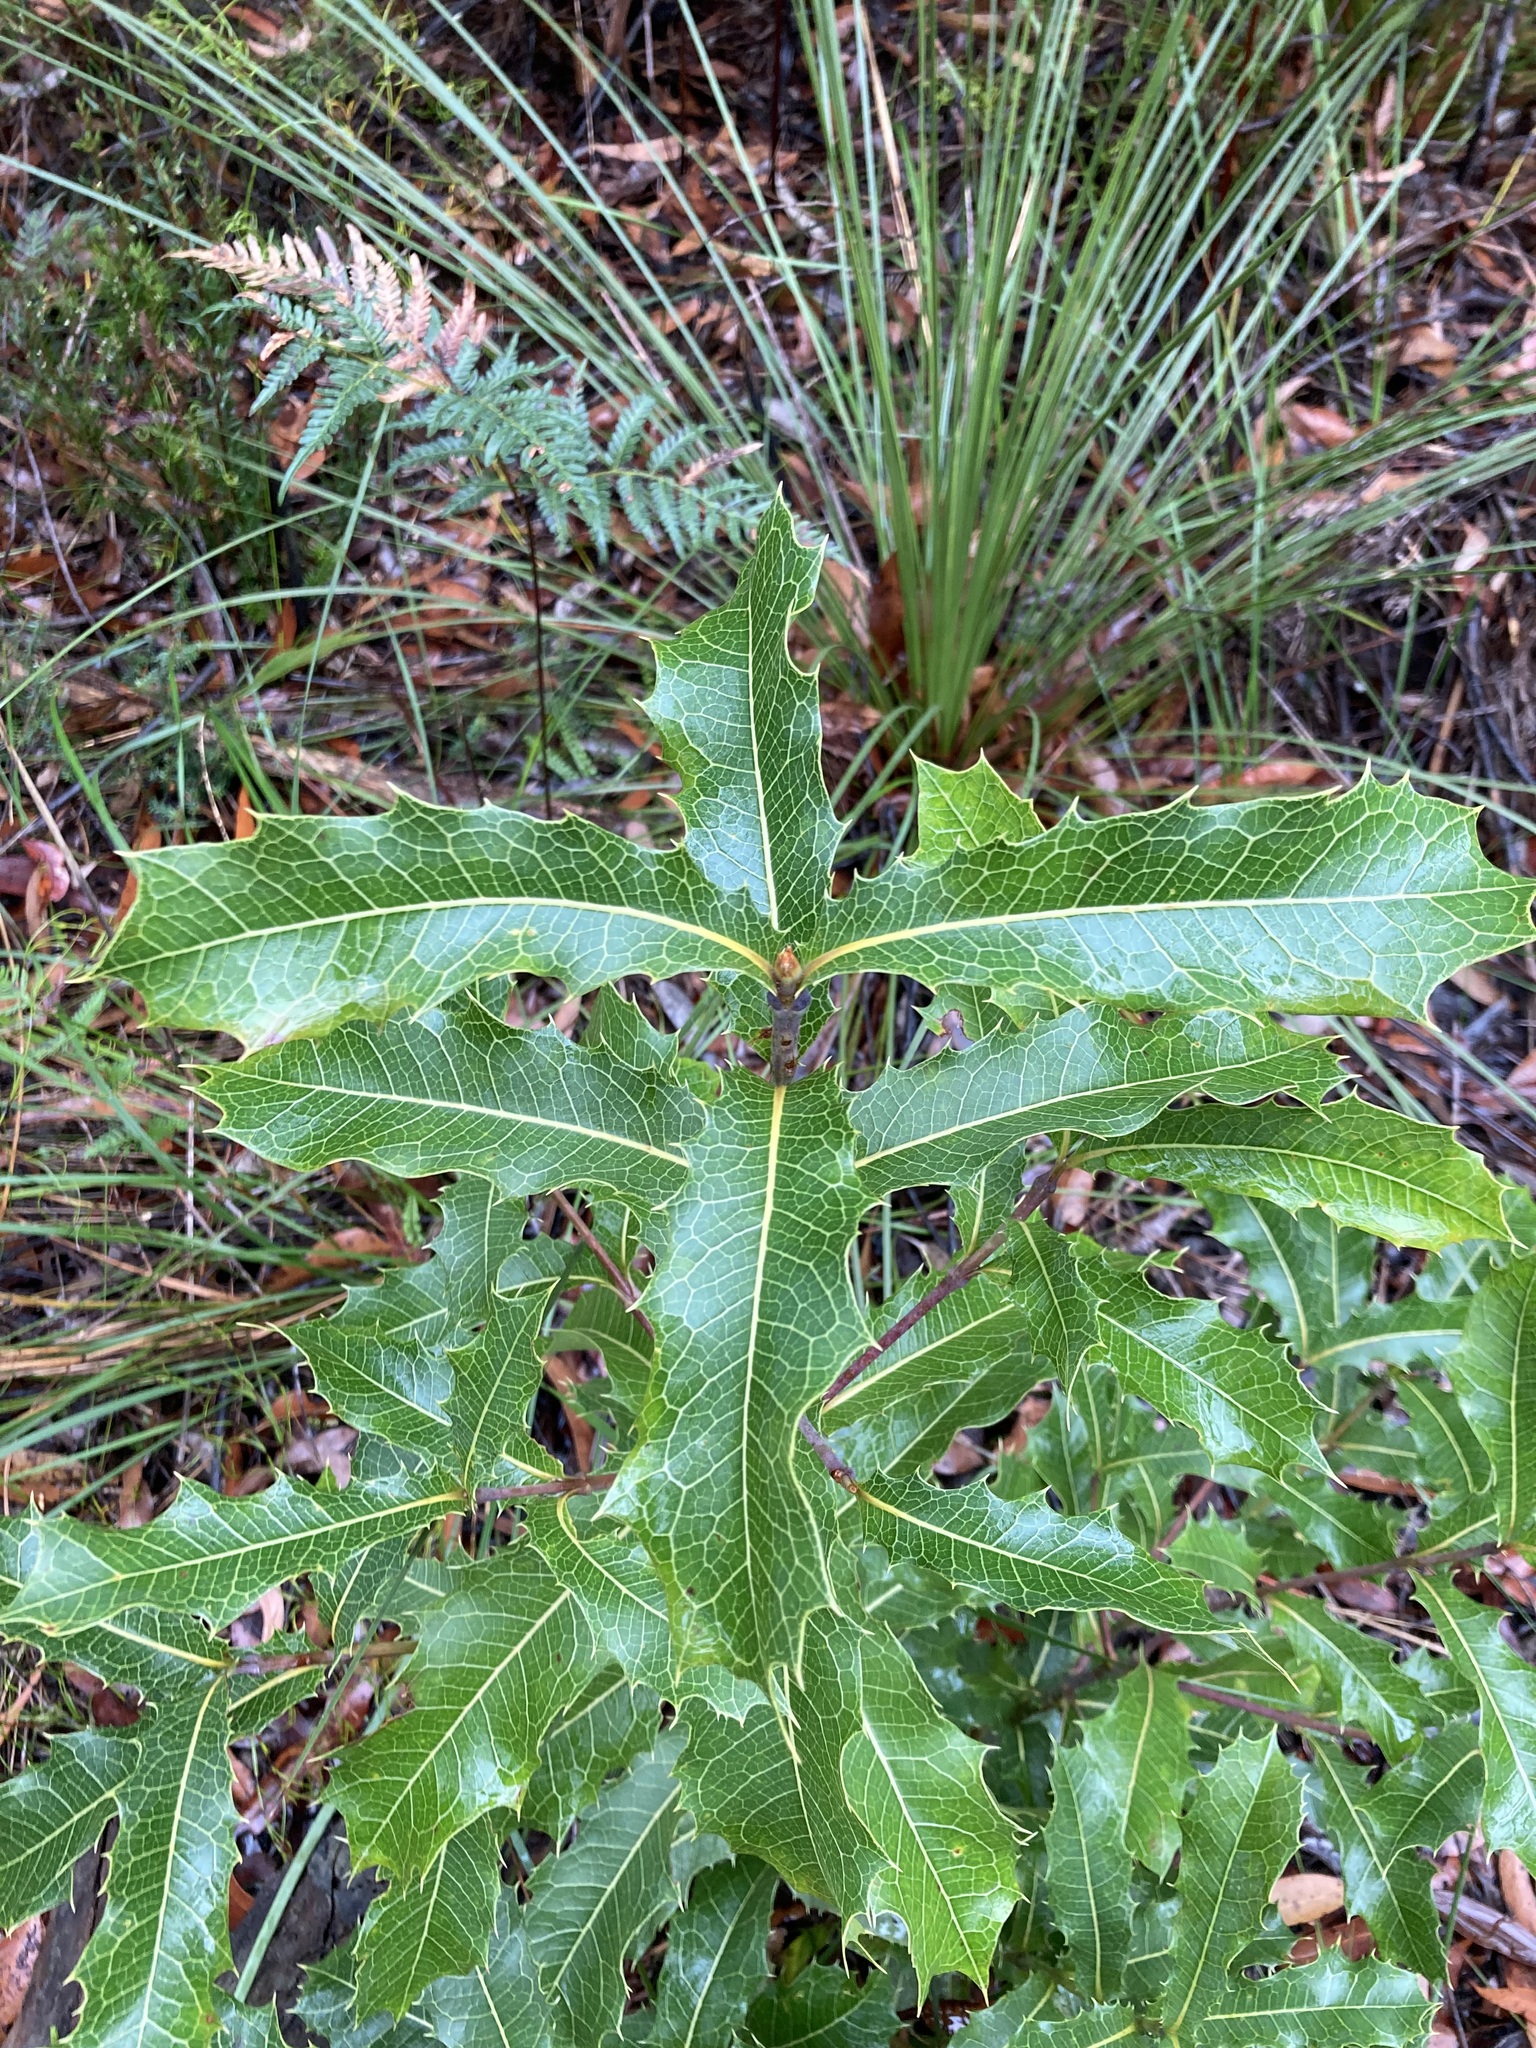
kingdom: Plantae
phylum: Tracheophyta
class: Magnoliopsida
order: Proteales
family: Proteaceae
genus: Xylomelum
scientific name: Xylomelum pyriforme
